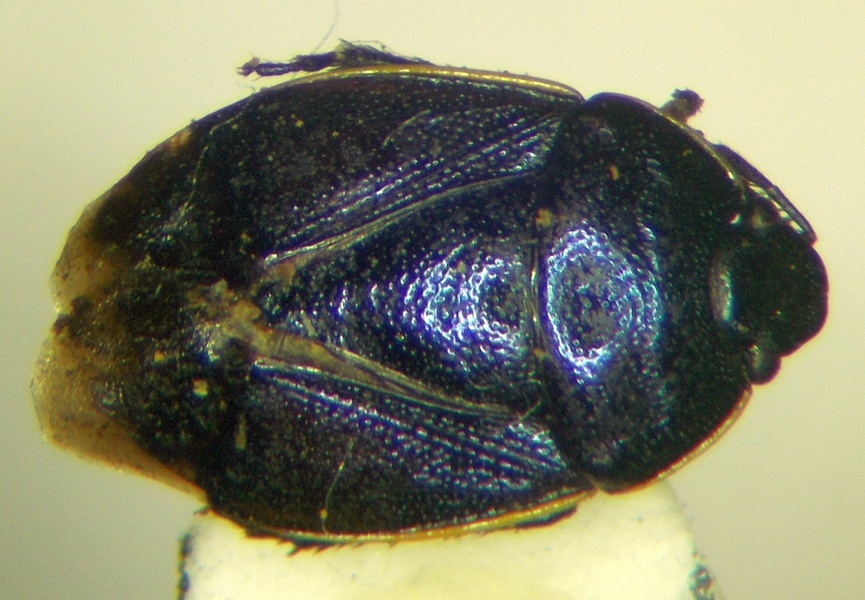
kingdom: Animalia
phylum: Arthropoda
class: Insecta
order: Hemiptera
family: Cydnidae
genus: Canthophorus
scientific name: Canthophorus melanopterus
